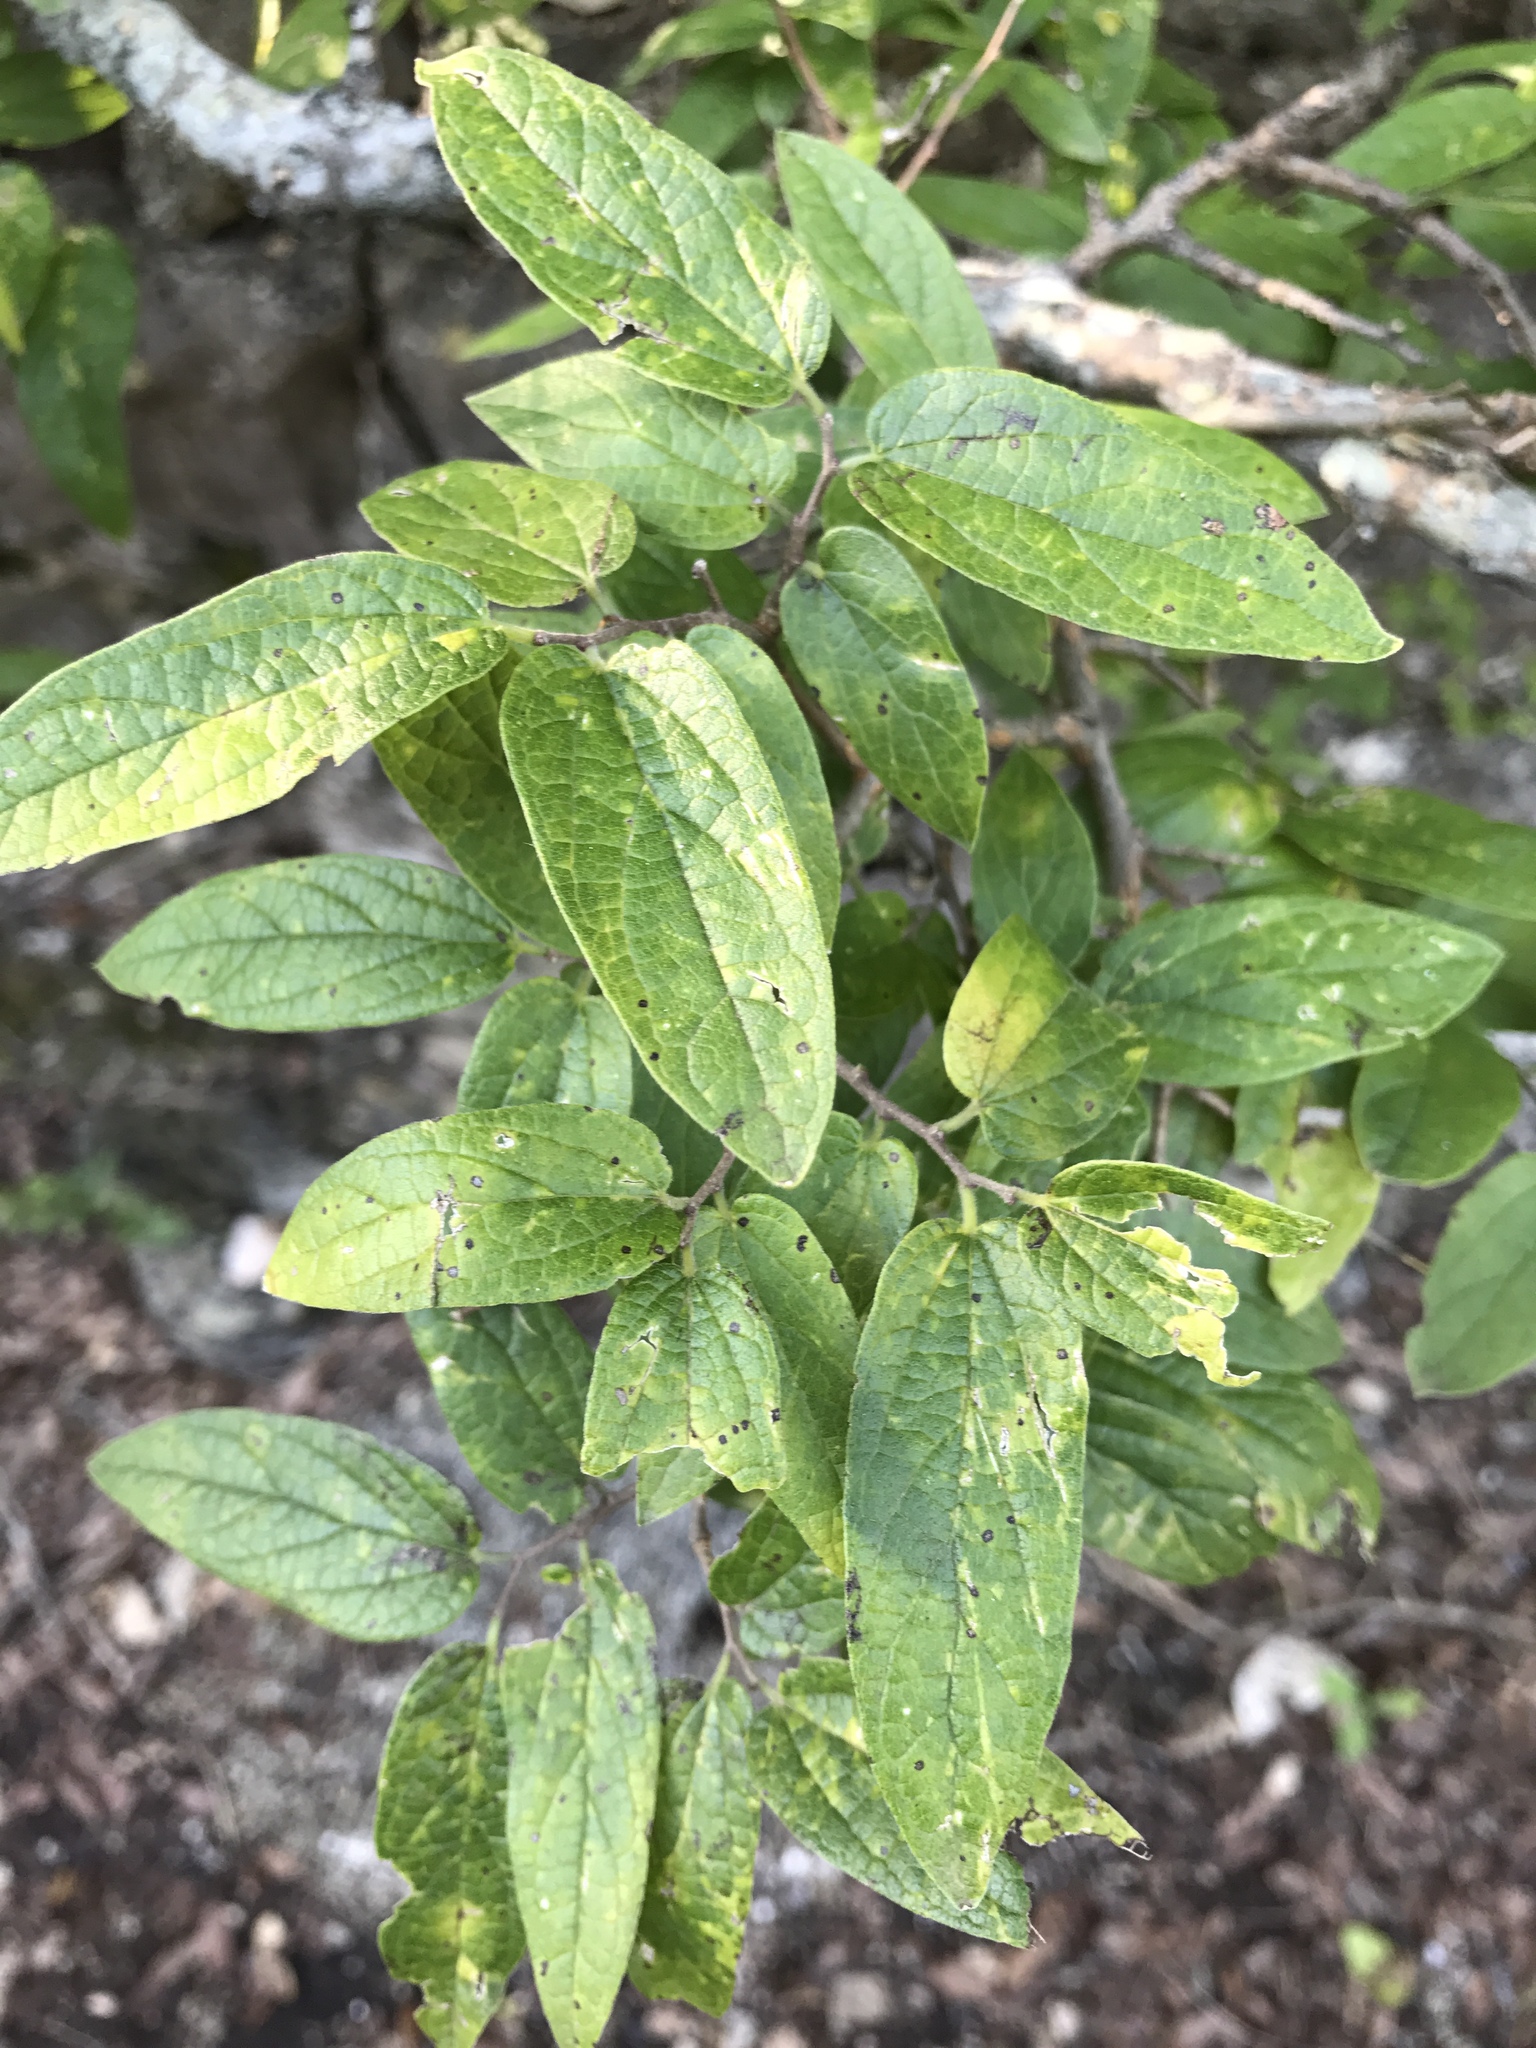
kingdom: Plantae
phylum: Tracheophyta
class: Magnoliopsida
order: Rosales
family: Cannabaceae
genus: Celtis
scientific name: Celtis reticulata
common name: Netleaf hackberry
